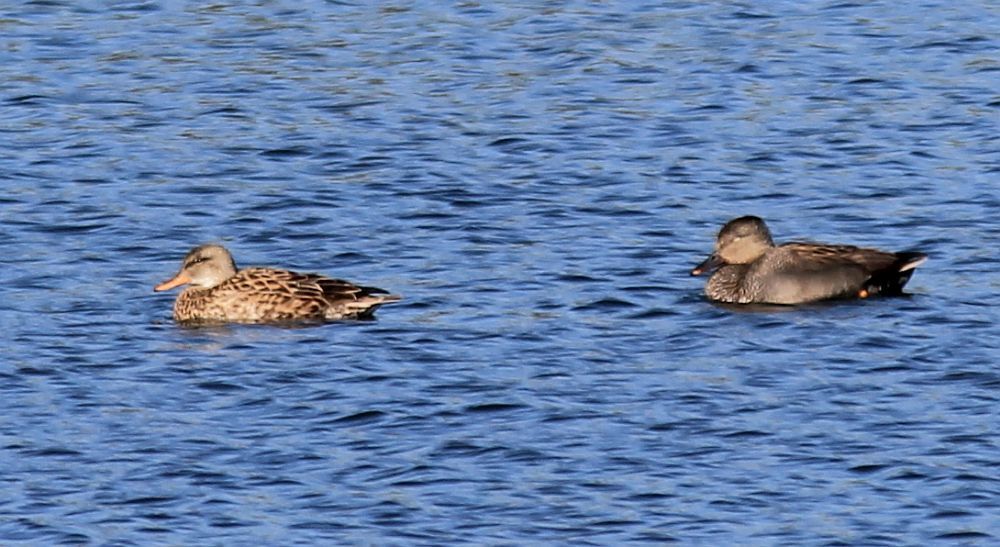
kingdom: Animalia
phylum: Chordata
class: Aves
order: Anseriformes
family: Anatidae
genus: Mareca
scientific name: Mareca strepera
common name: Gadwall
